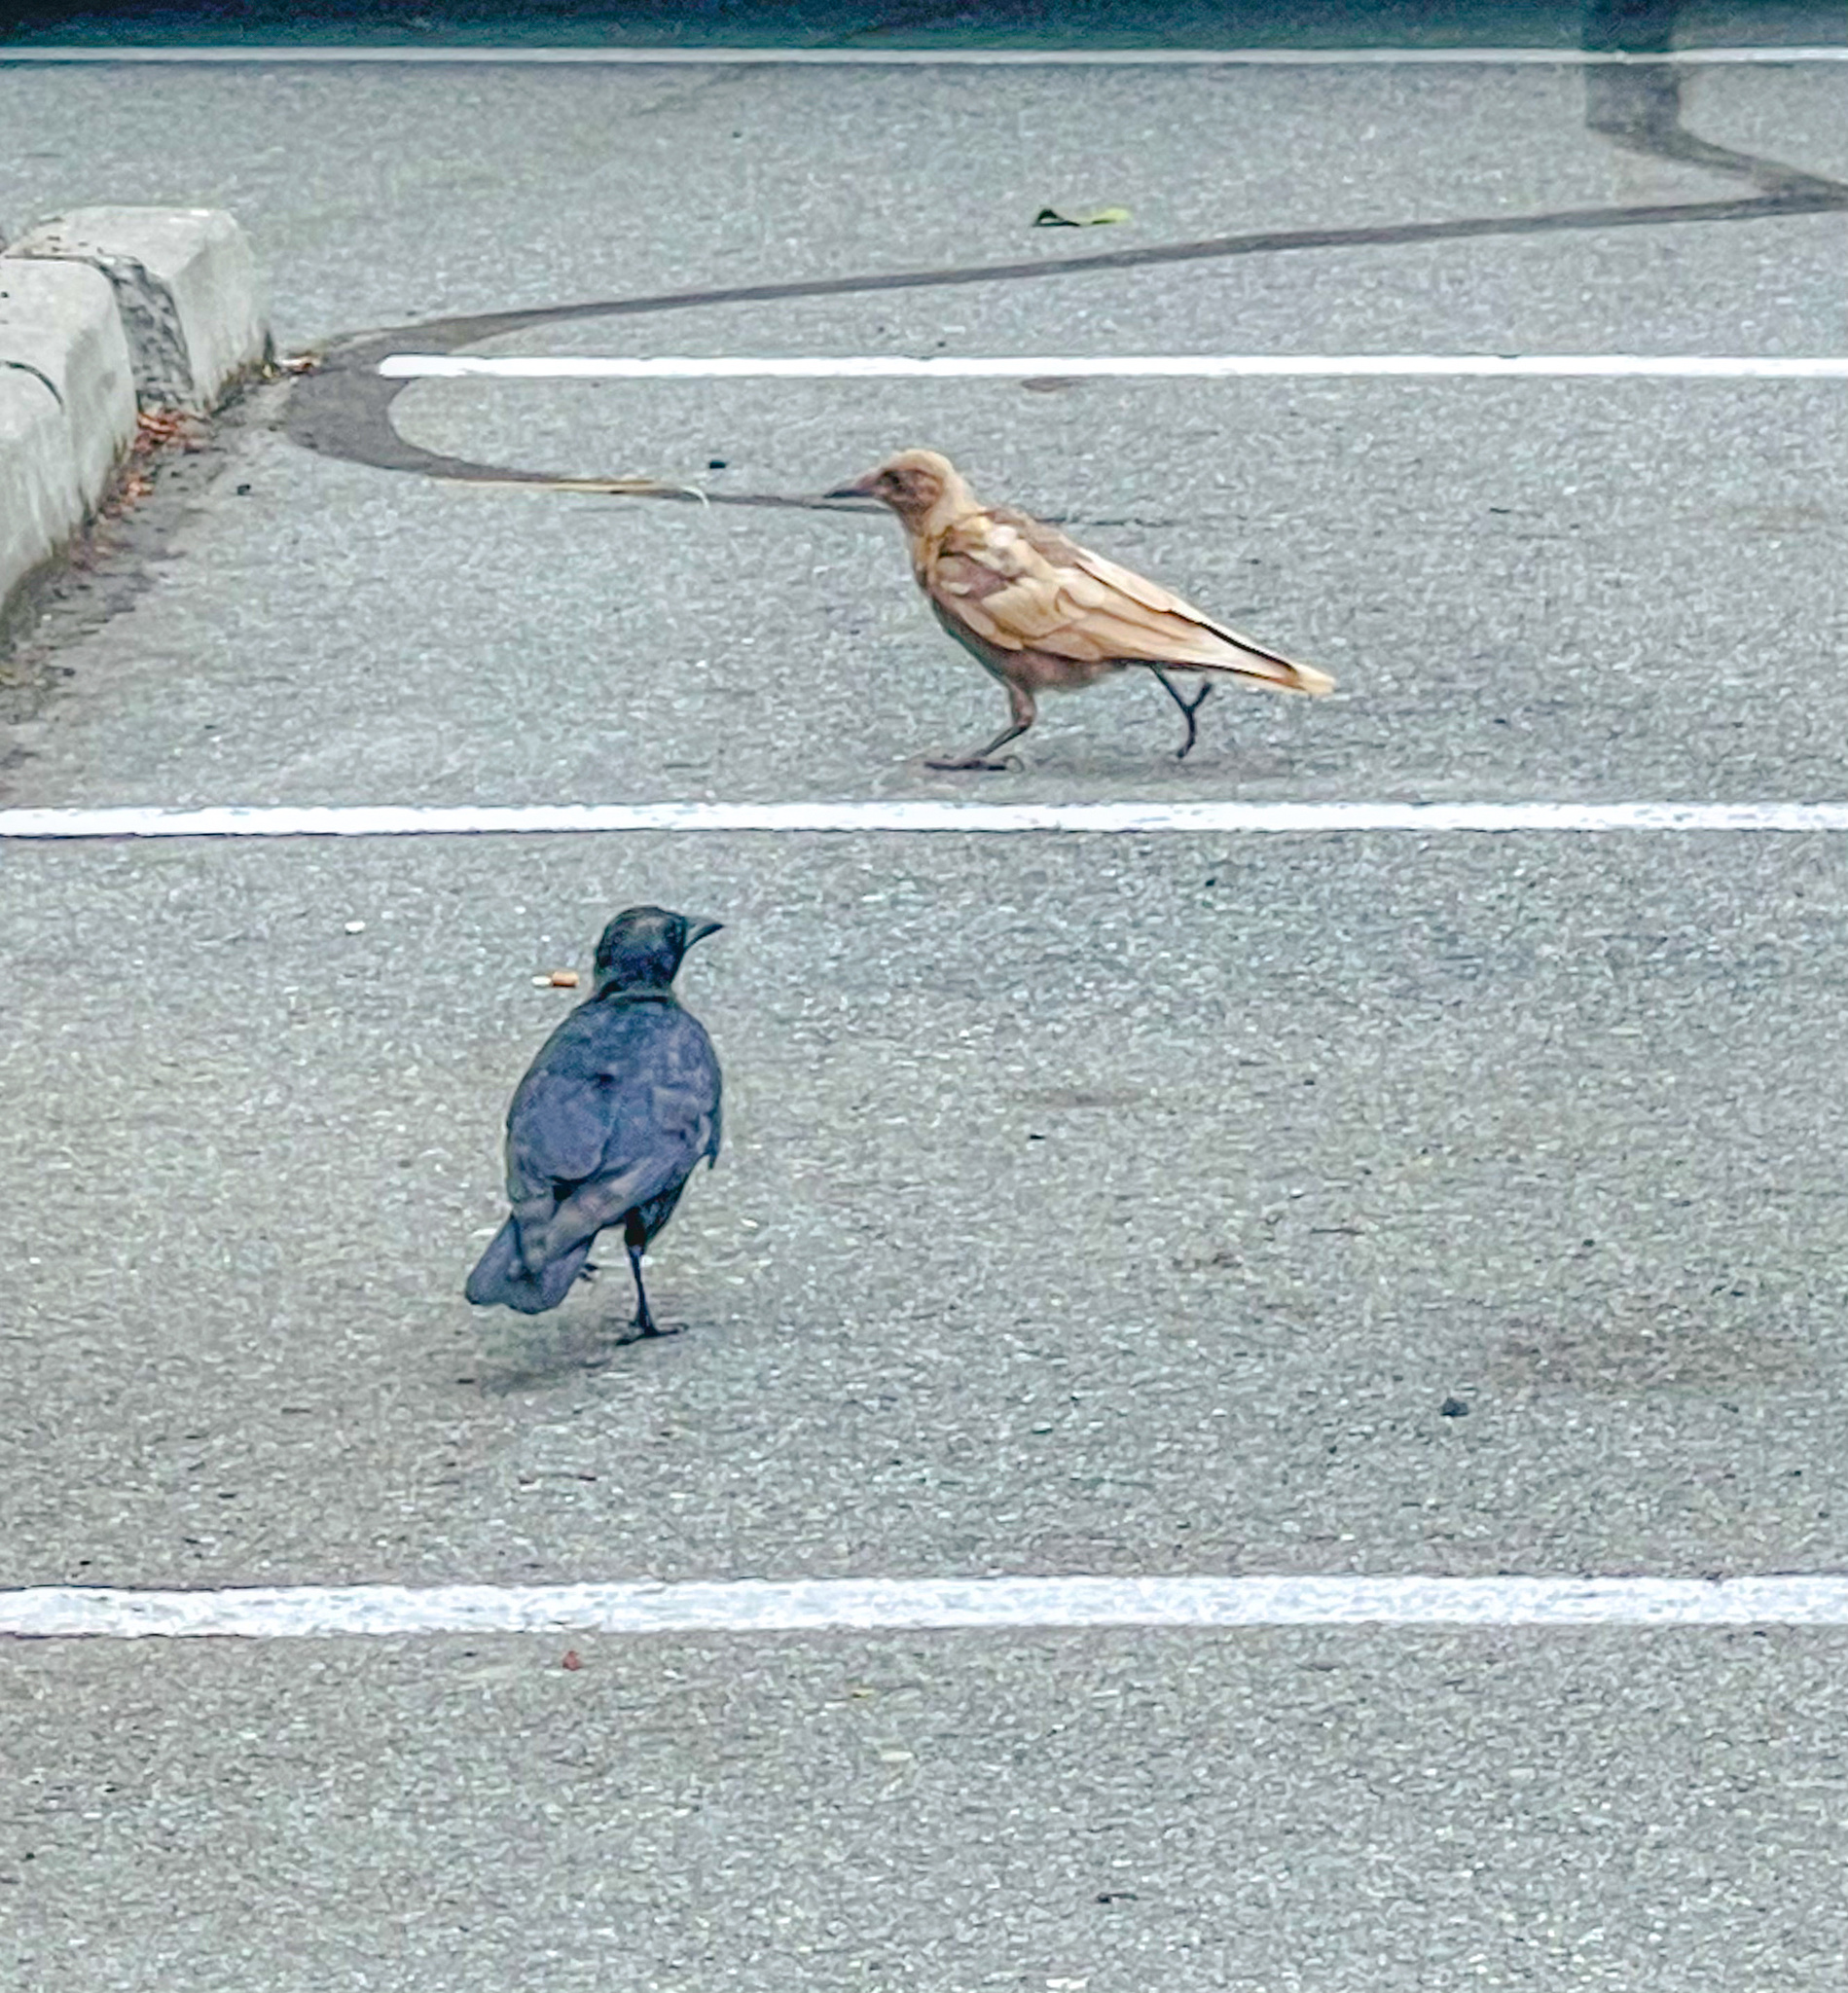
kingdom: Animalia
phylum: Chordata
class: Aves
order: Passeriformes
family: Corvidae
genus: Corvus
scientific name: Corvus brachyrhynchos
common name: American crow
